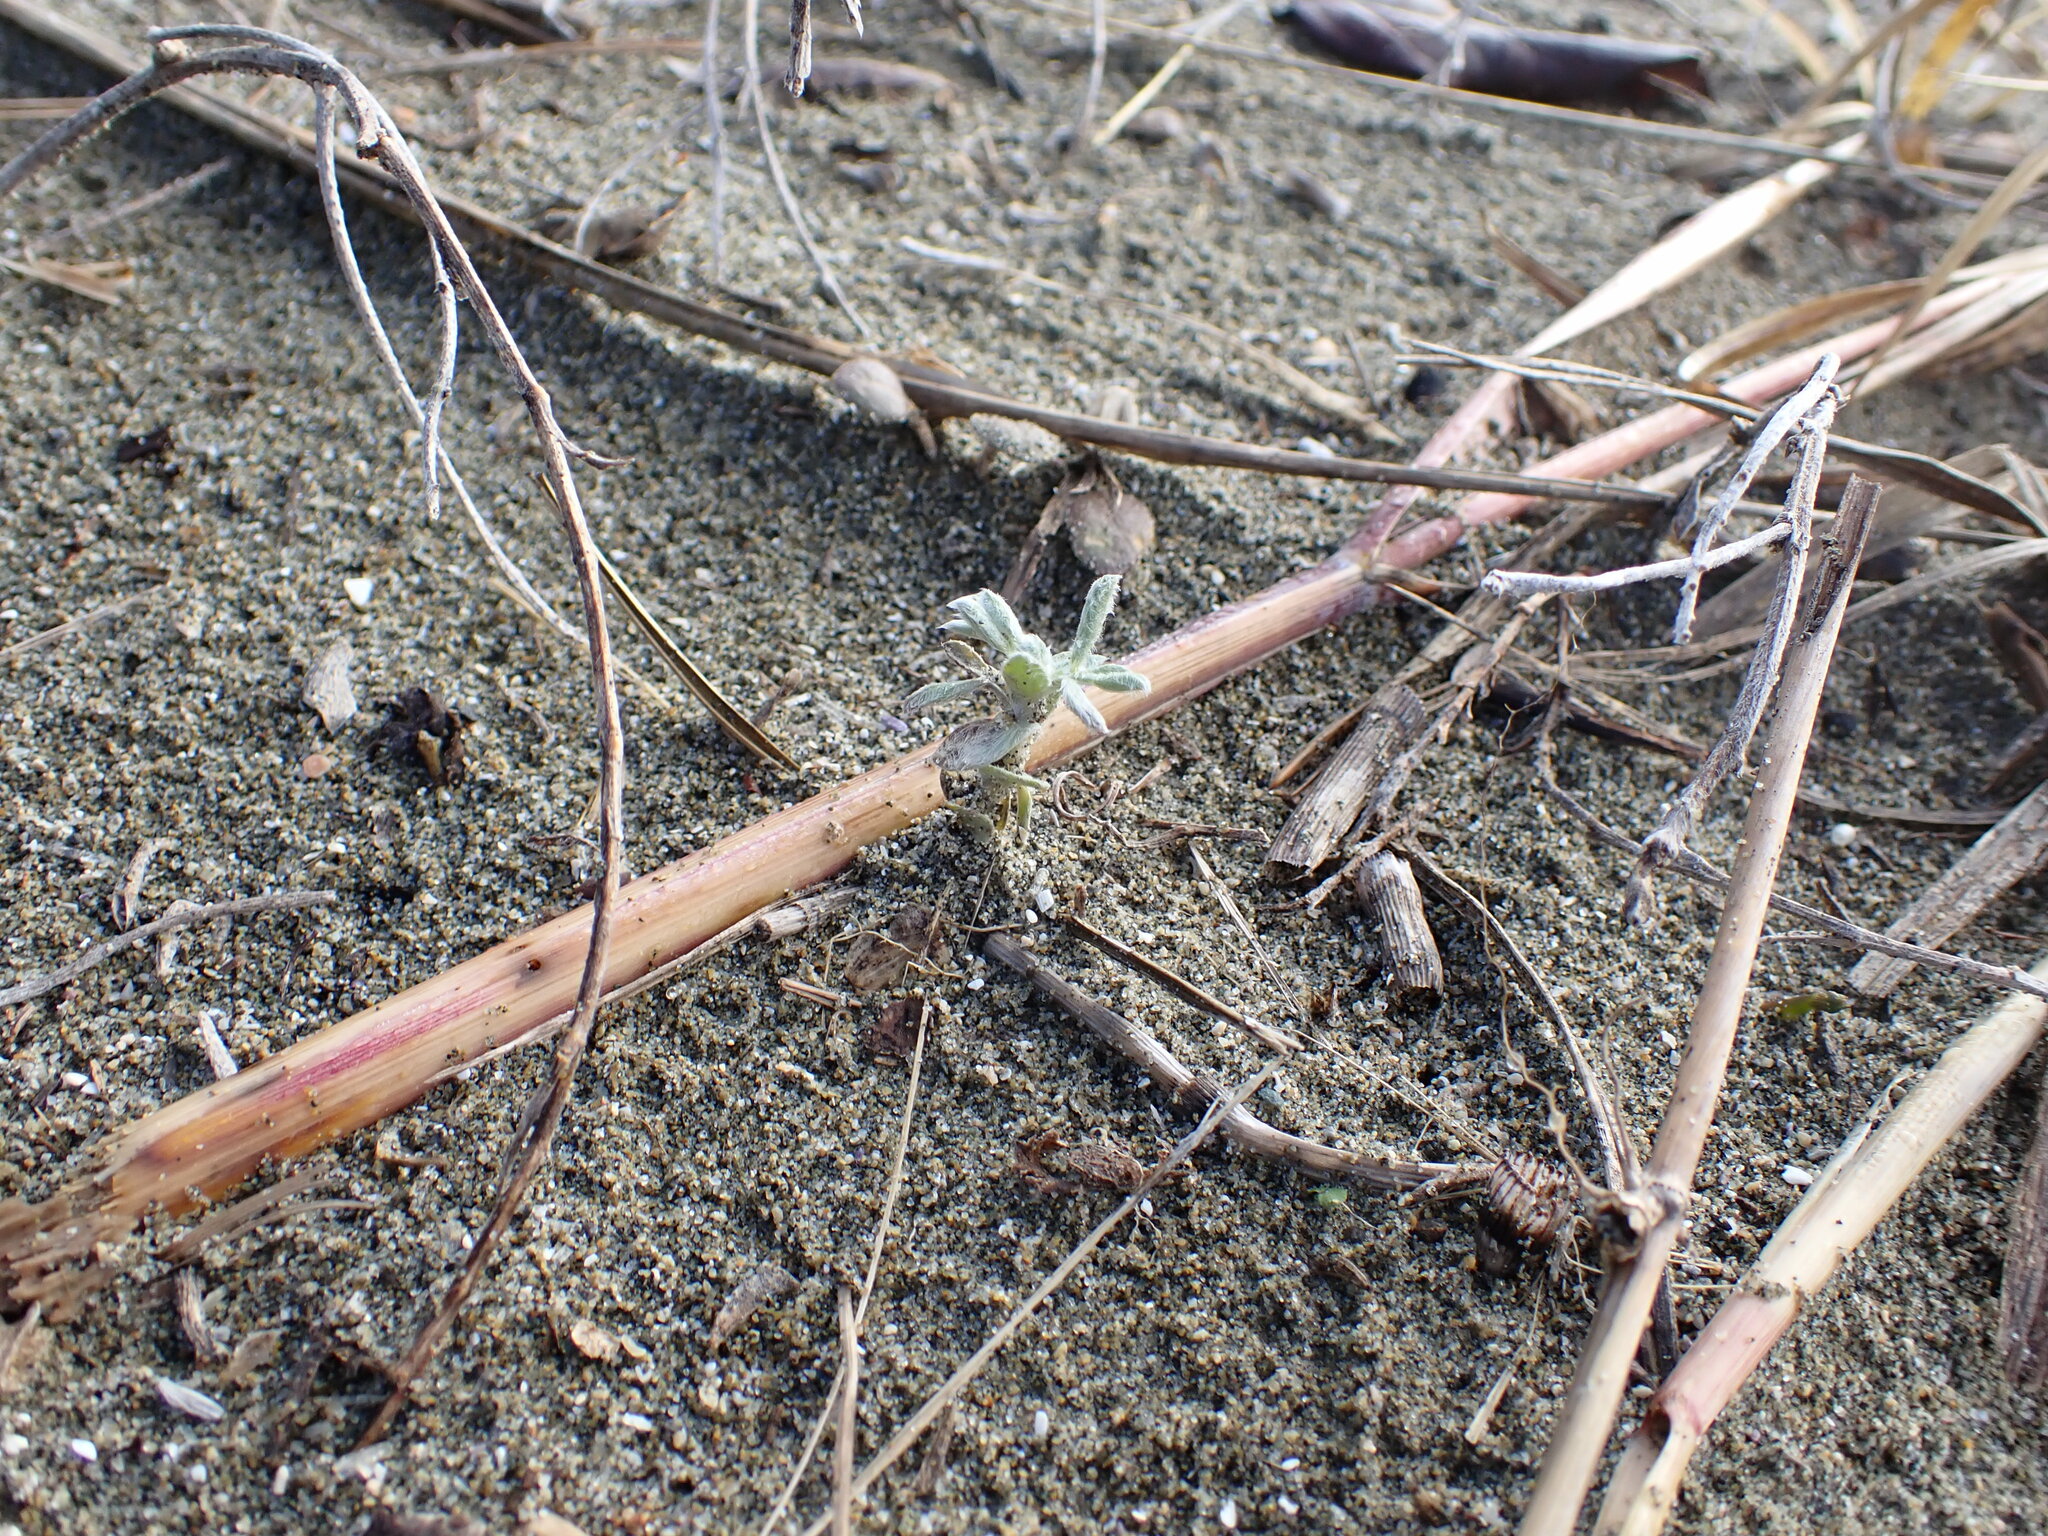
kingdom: Plantae
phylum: Tracheophyta
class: Magnoliopsida
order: Fabales
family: Fabaceae
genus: Lathyrus
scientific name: Lathyrus littoralis
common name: Dune sweet pea
